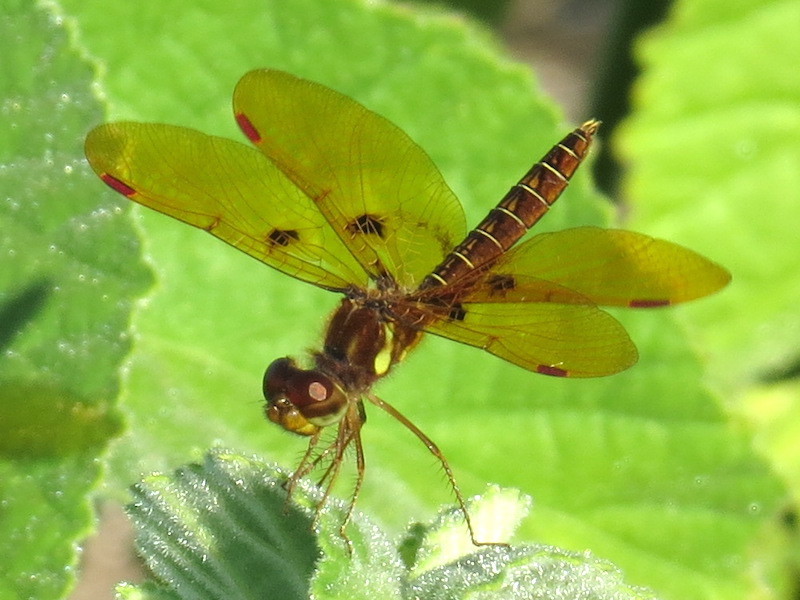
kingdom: Animalia
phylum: Arthropoda
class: Insecta
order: Odonata
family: Libellulidae
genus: Perithemis
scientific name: Perithemis tenera
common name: Eastern amberwing
